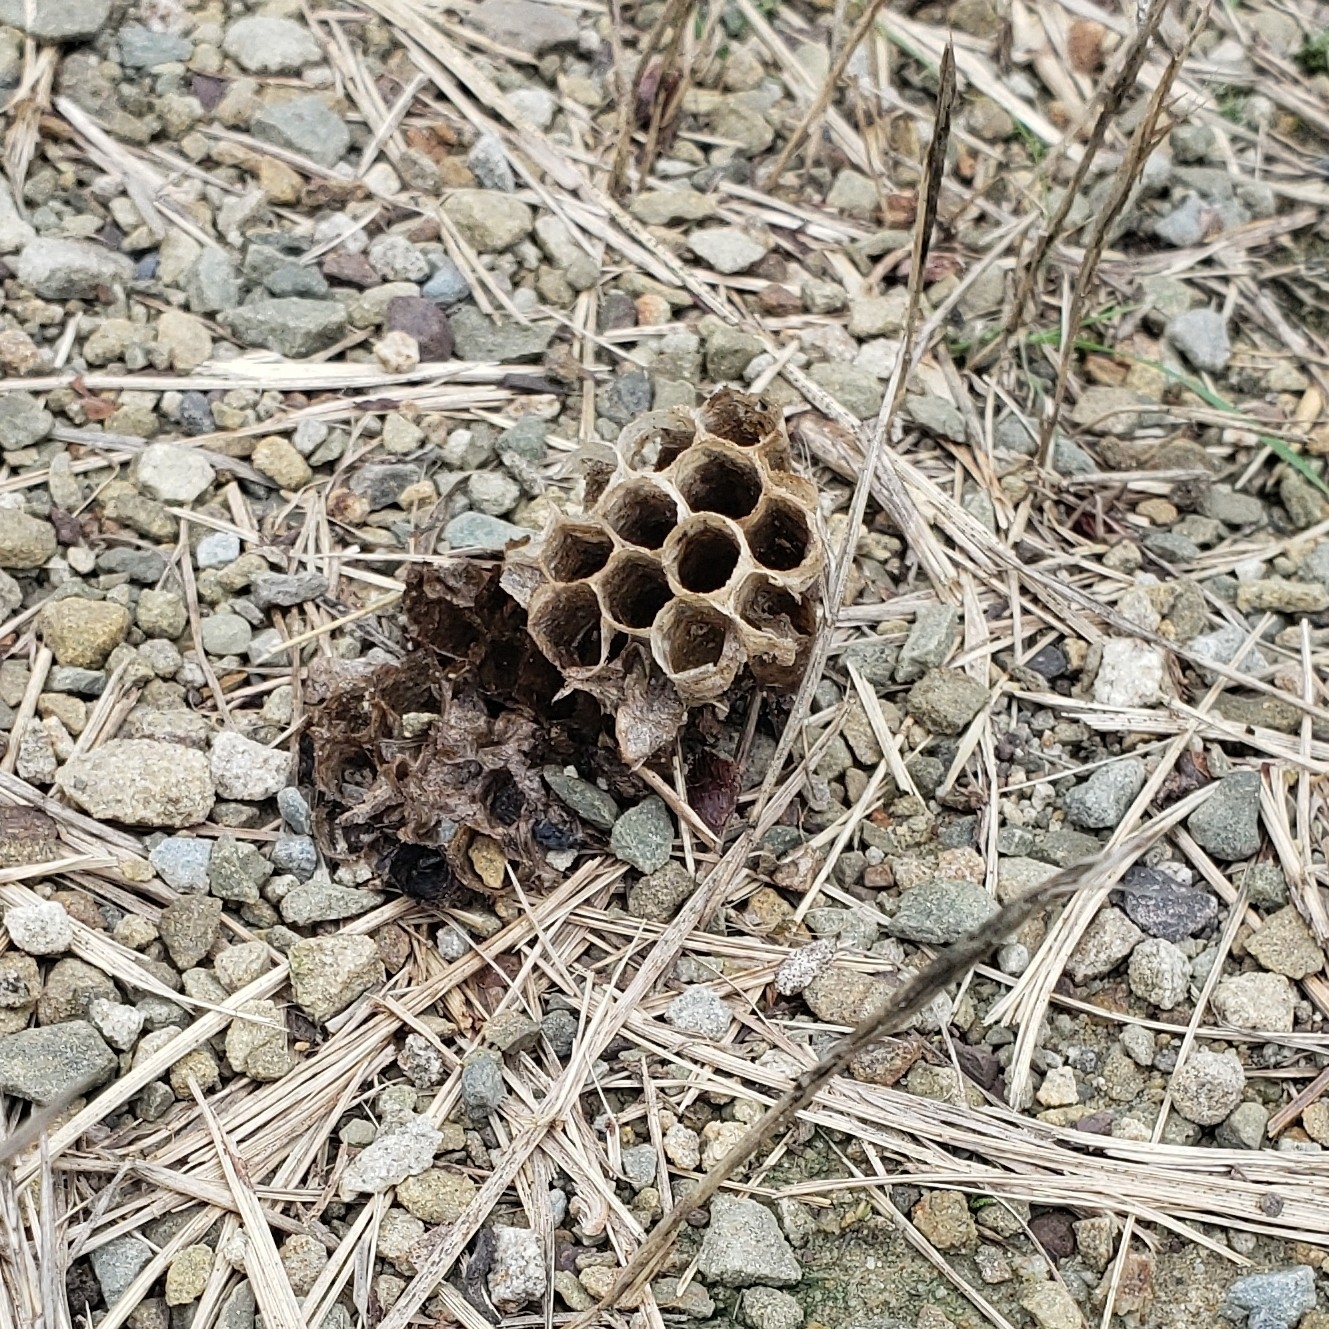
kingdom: Animalia
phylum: Arthropoda
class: Insecta
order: Hymenoptera
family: Eumenidae
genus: Polistes
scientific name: Polistes
